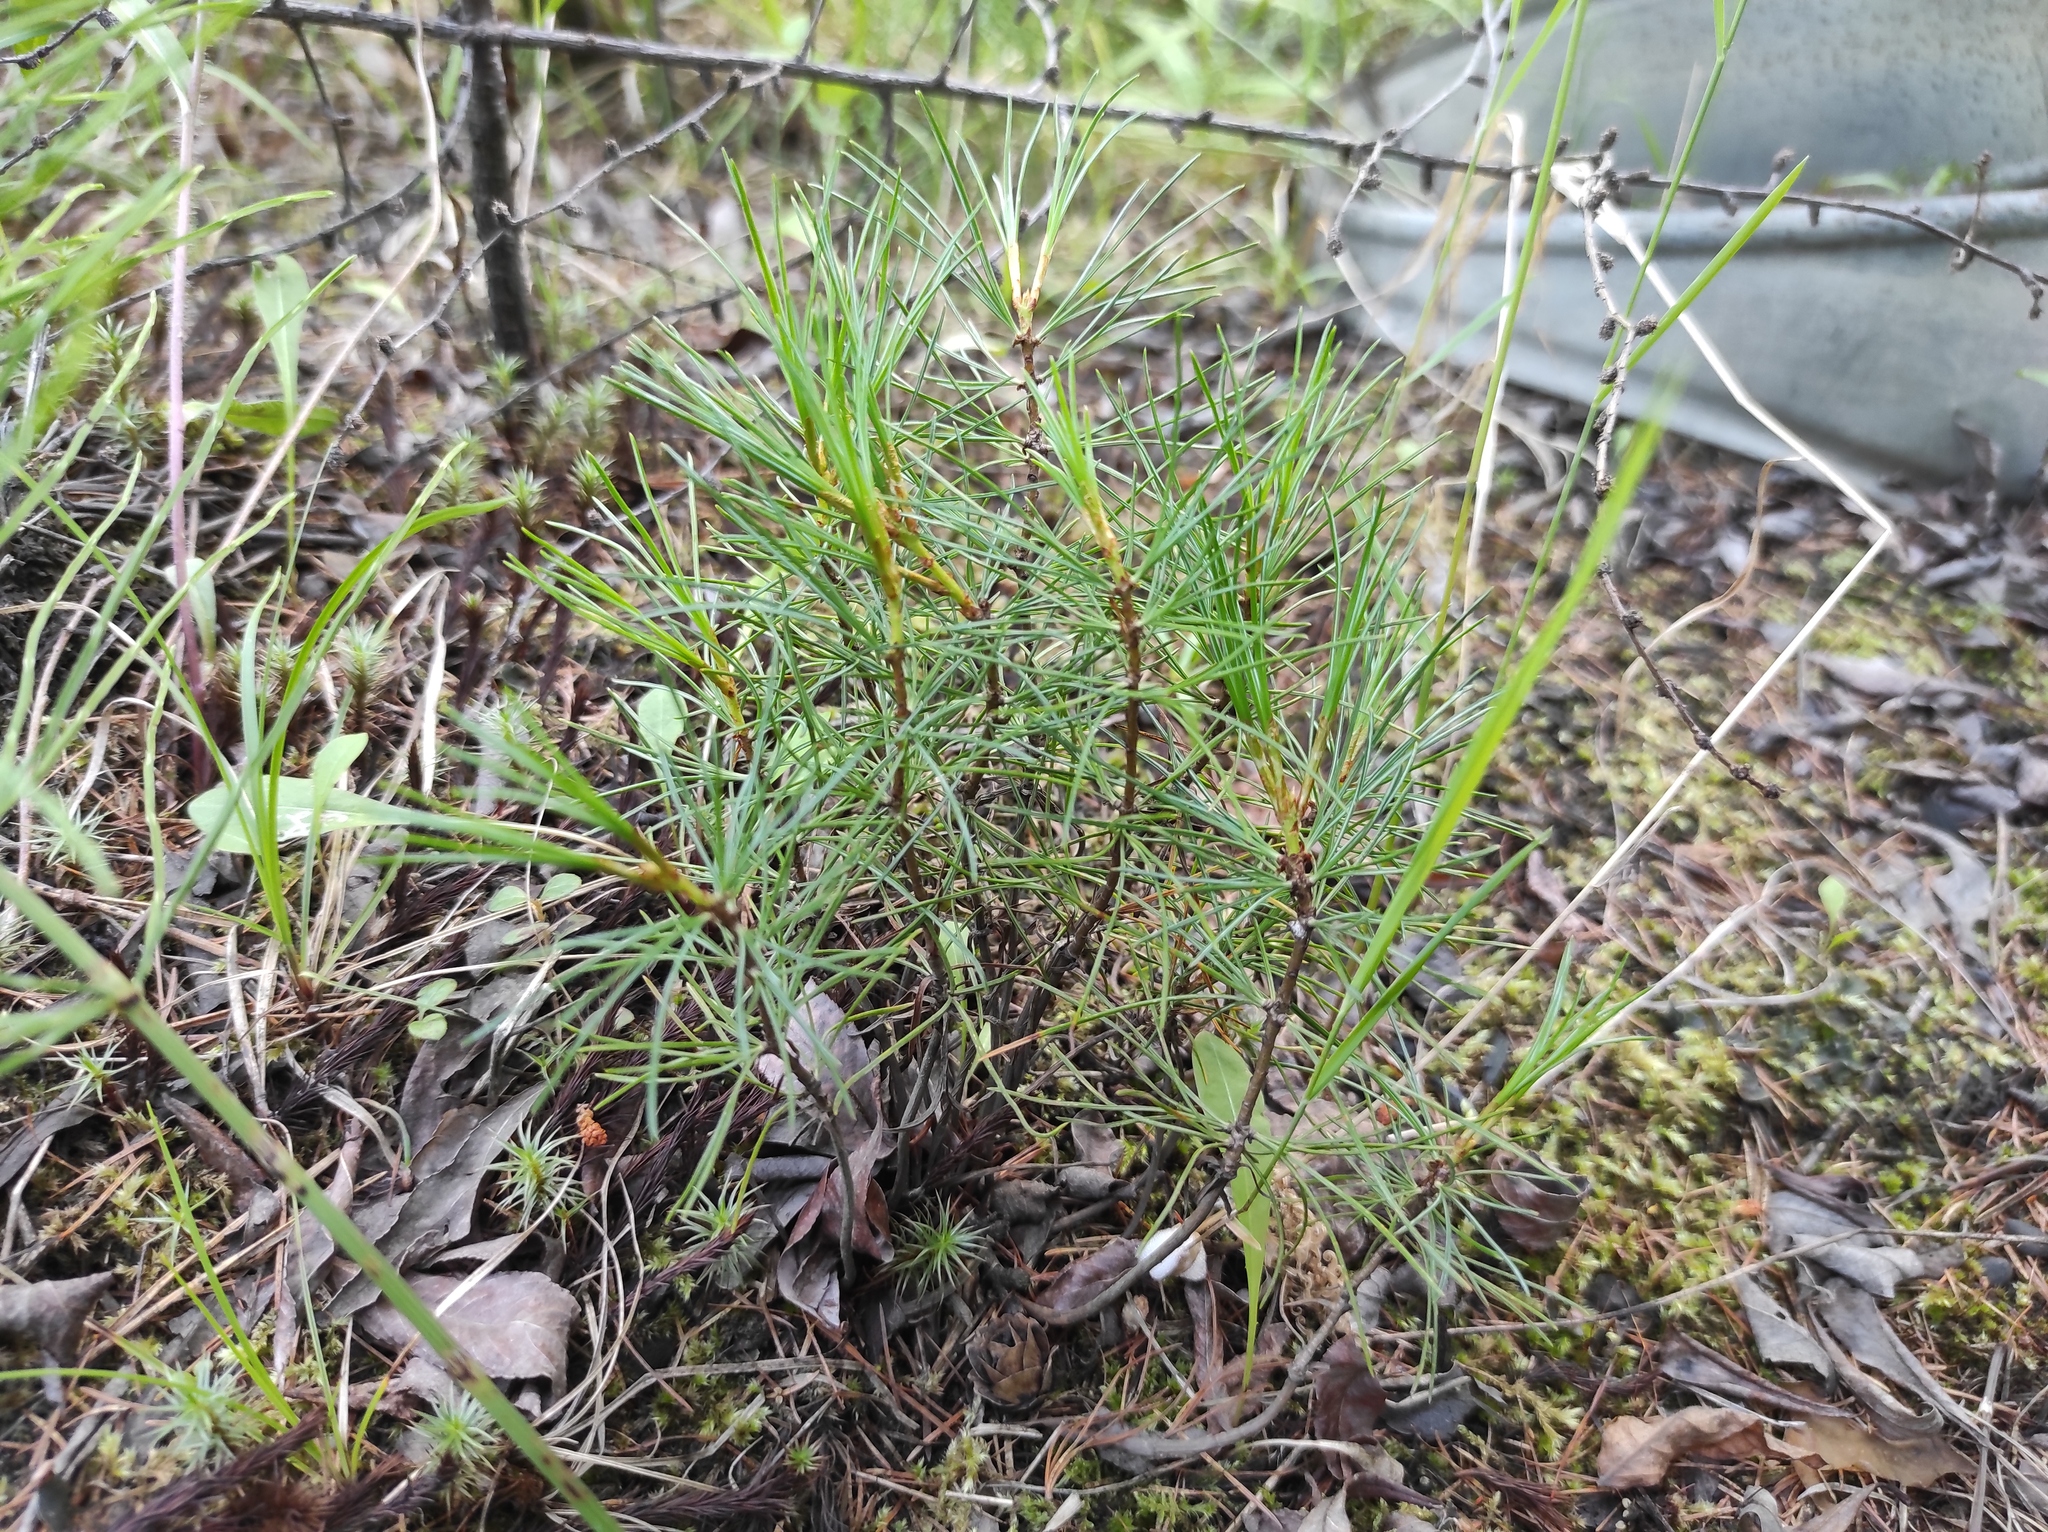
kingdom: Plantae
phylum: Tracheophyta
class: Pinopsida
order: Pinales
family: Pinaceae
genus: Pinus
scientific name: Pinus pumila
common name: Dwarf siberian pine
